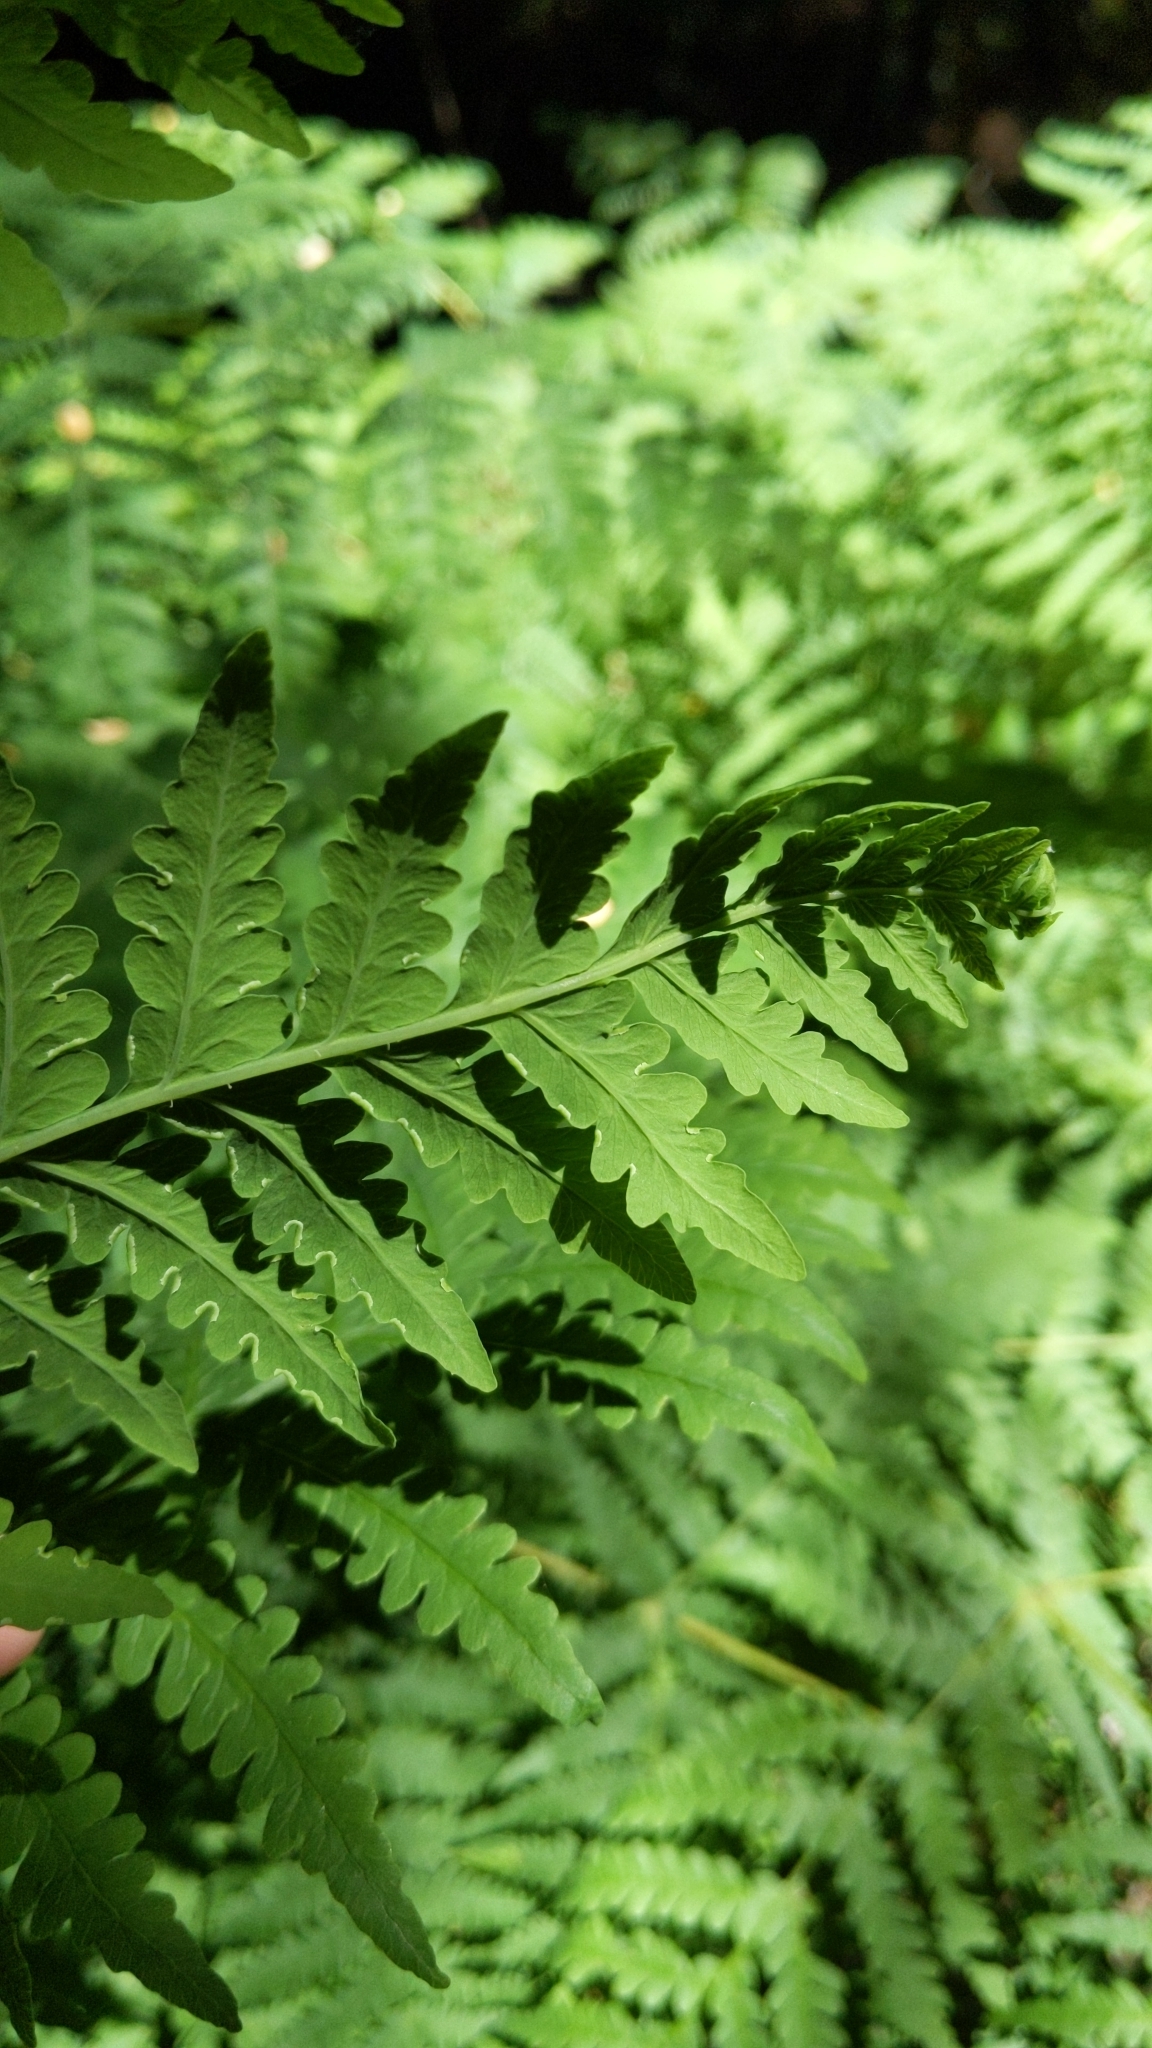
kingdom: Plantae
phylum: Tracheophyta
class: Polypodiopsida
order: Polypodiales
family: Dennstaedtiaceae
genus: Histiopteris
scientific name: Histiopteris incisa
